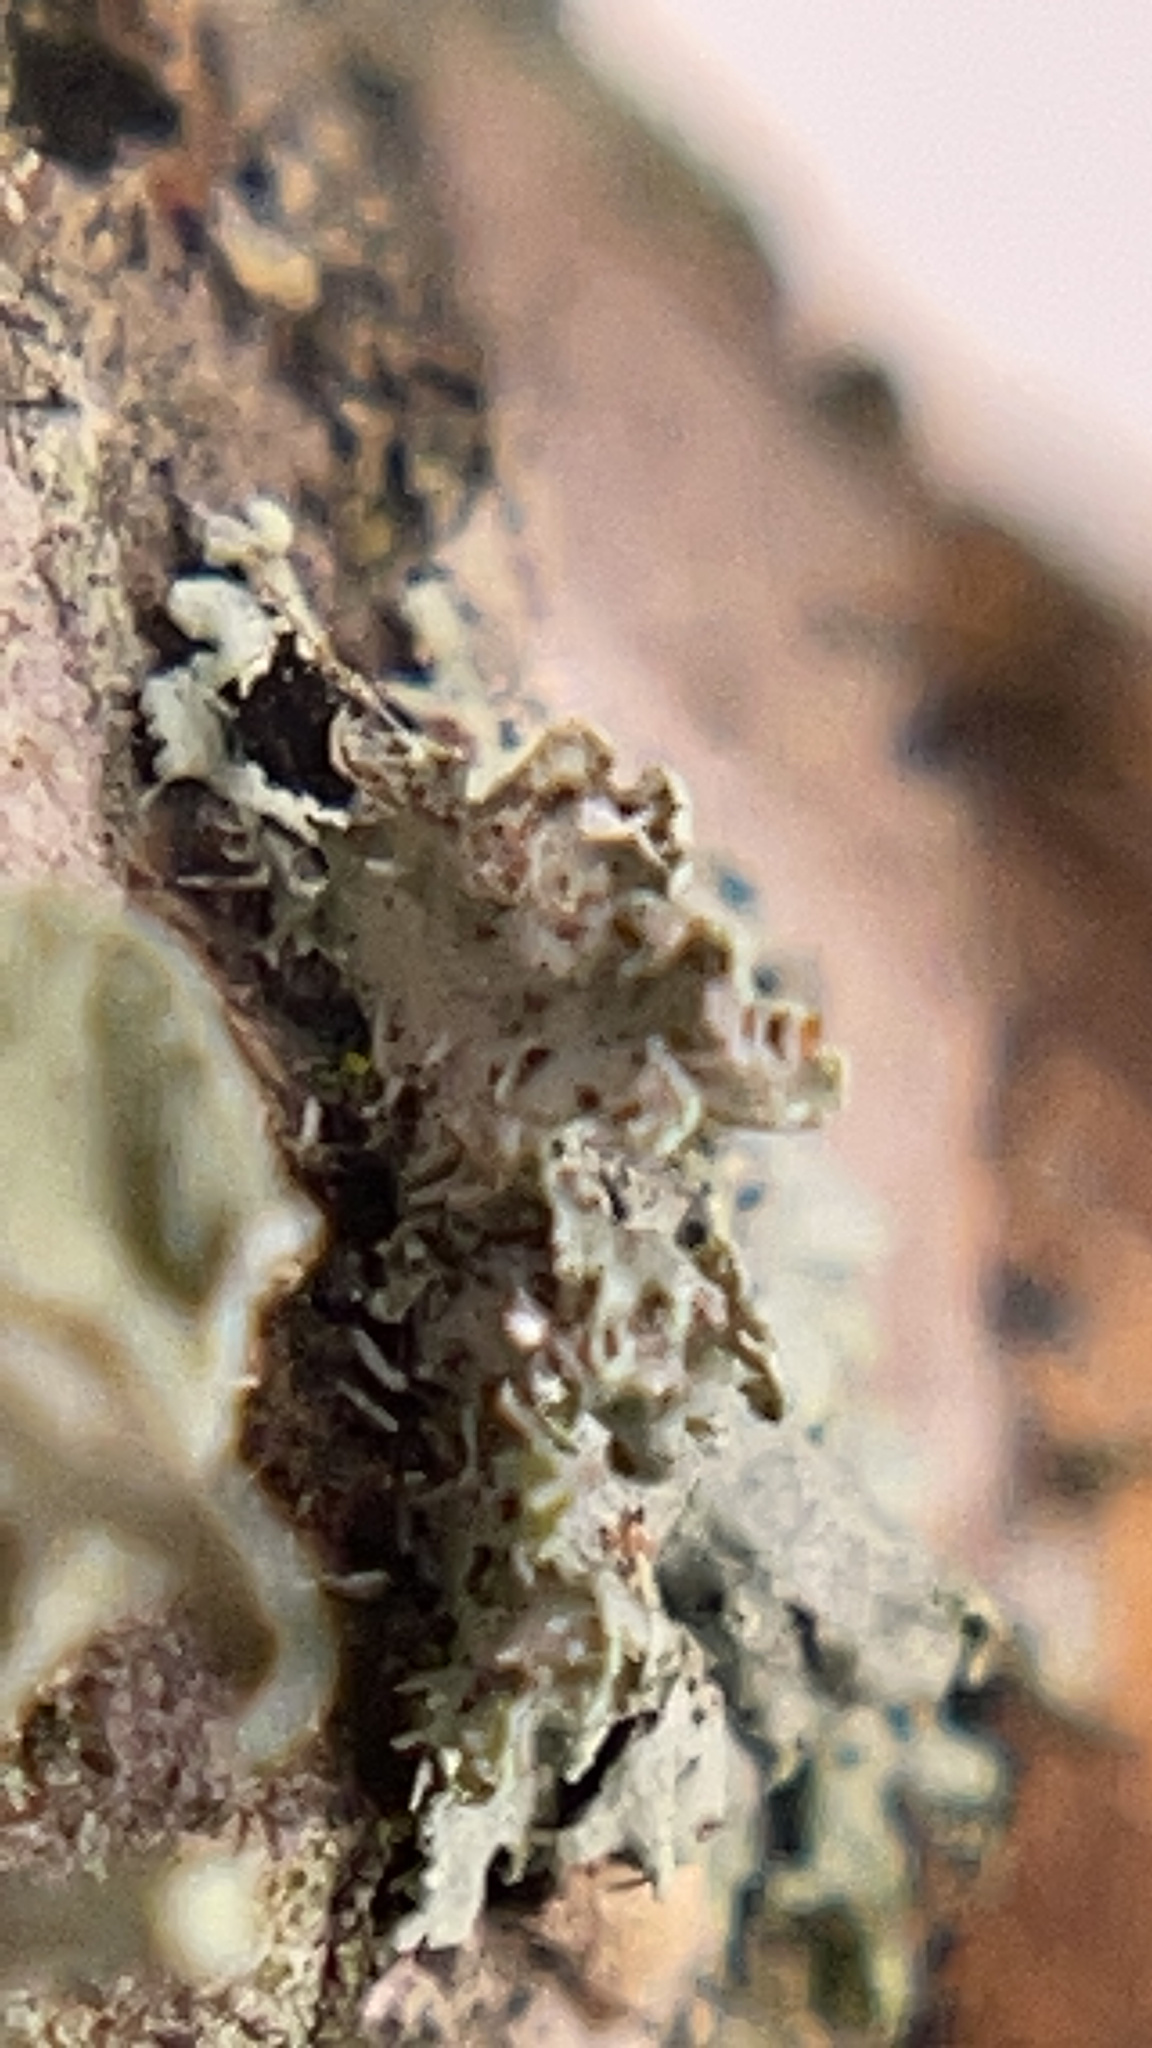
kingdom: Fungi
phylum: Ascomycota
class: Lecanoromycetes
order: Caliciales
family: Physciaceae
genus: Physcia
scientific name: Physcia pumilior
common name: Lesser gray legs
